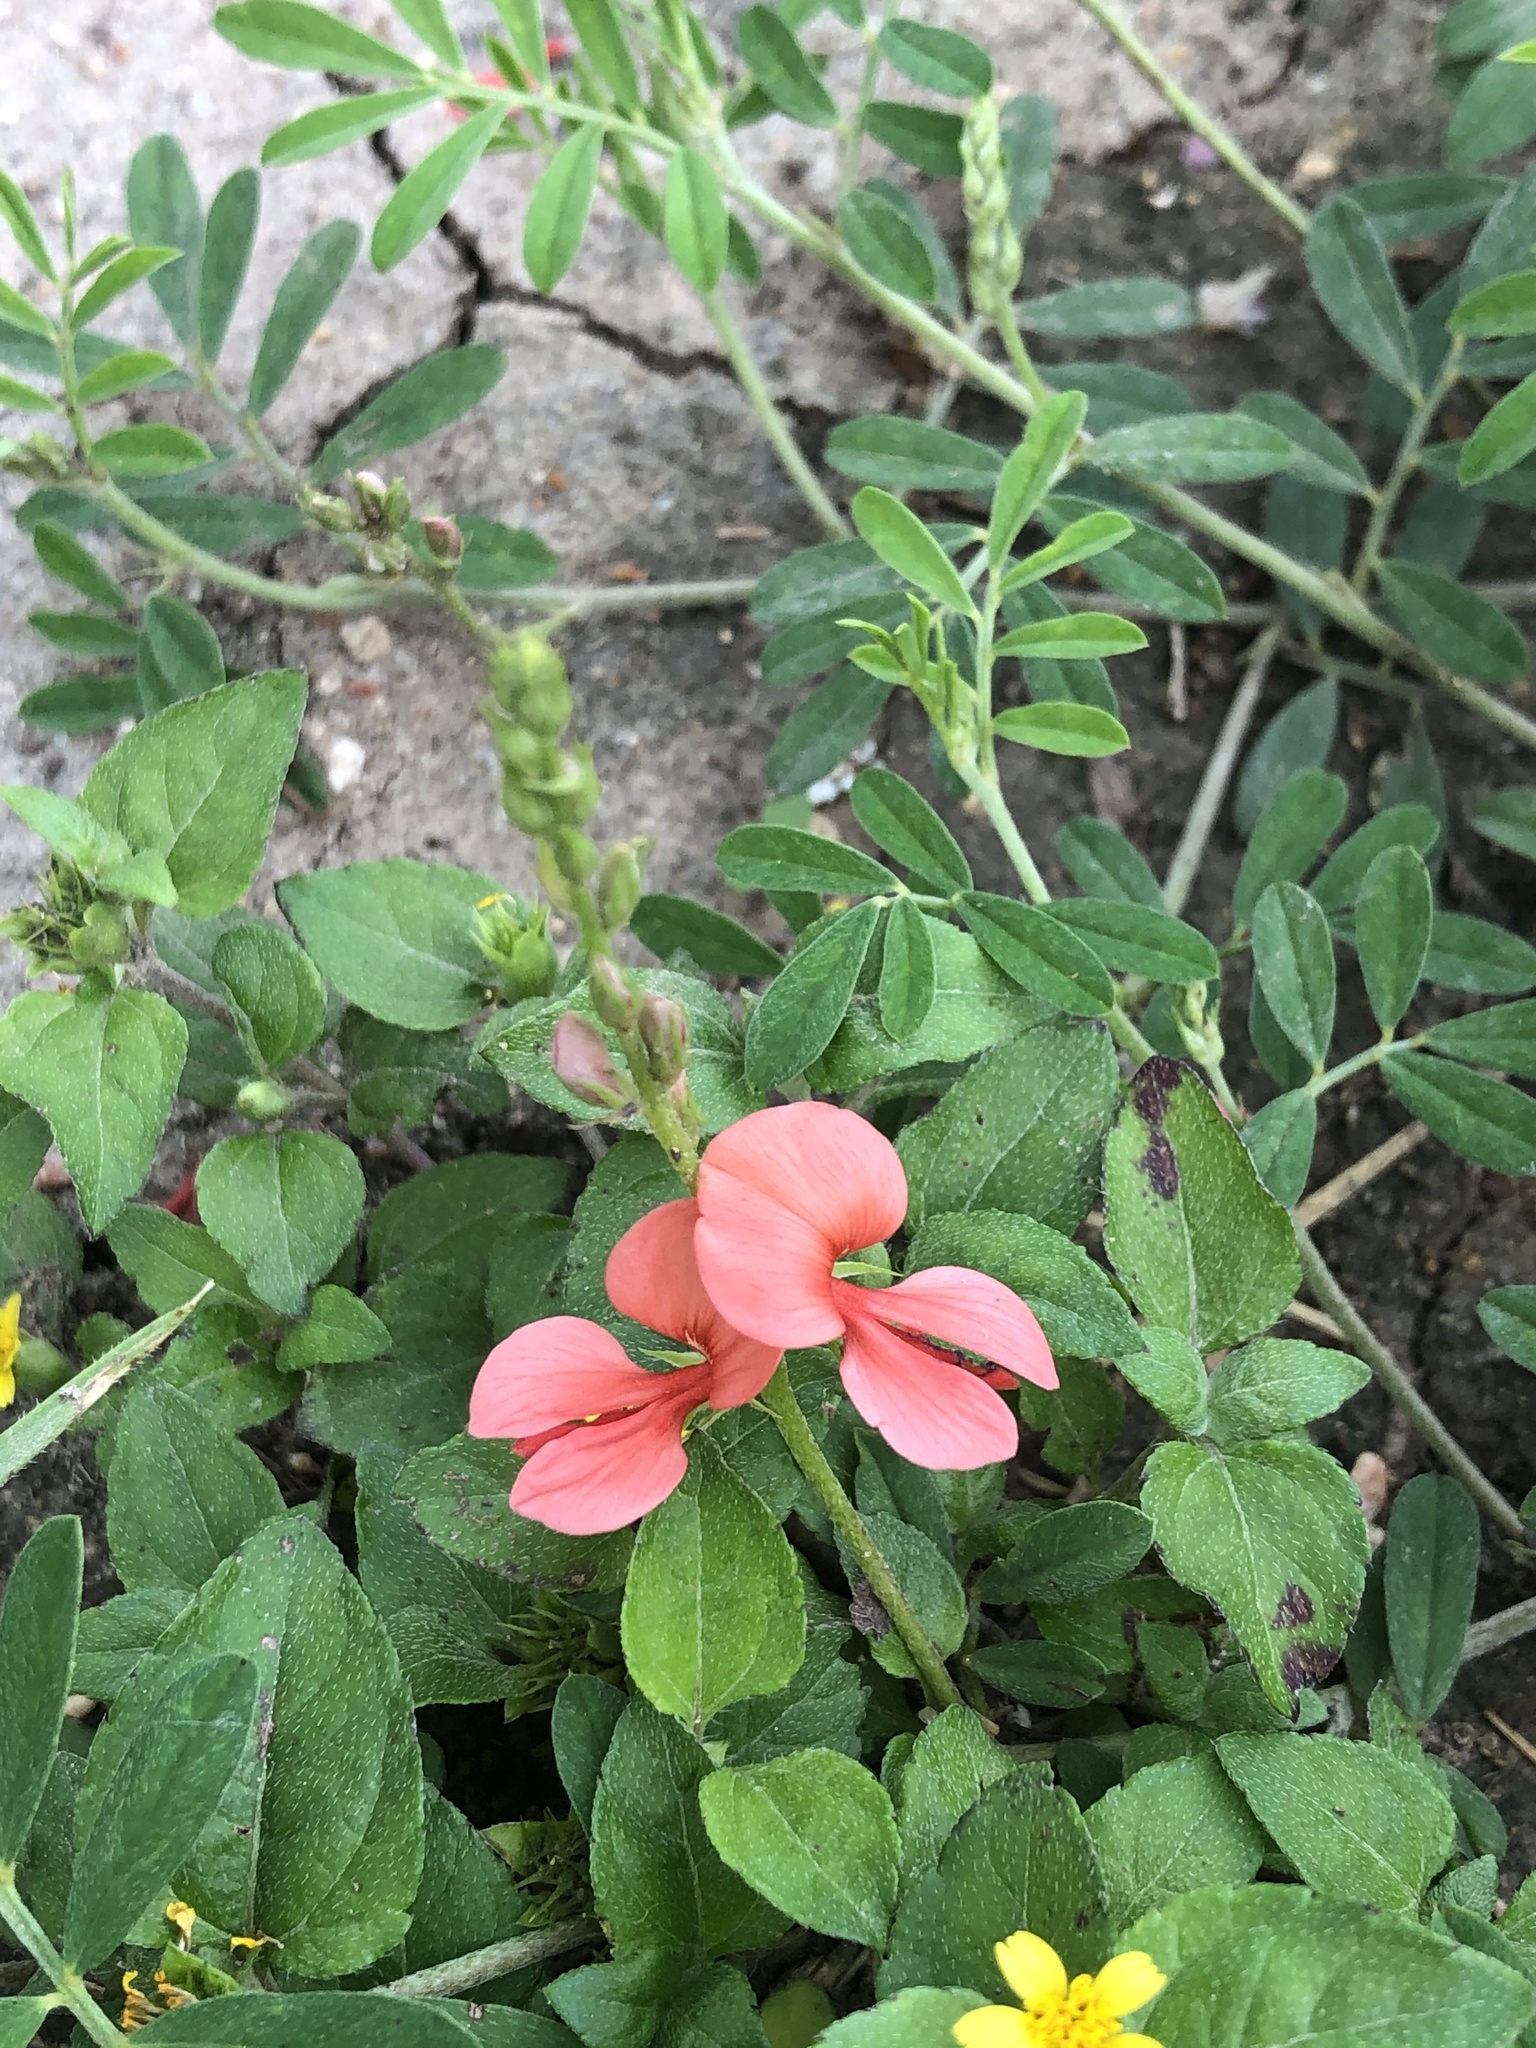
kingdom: Plantae
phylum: Tracheophyta
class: Magnoliopsida
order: Fabales
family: Fabaceae
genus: Indigofera
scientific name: Indigofera miniata
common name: Coast indigo
